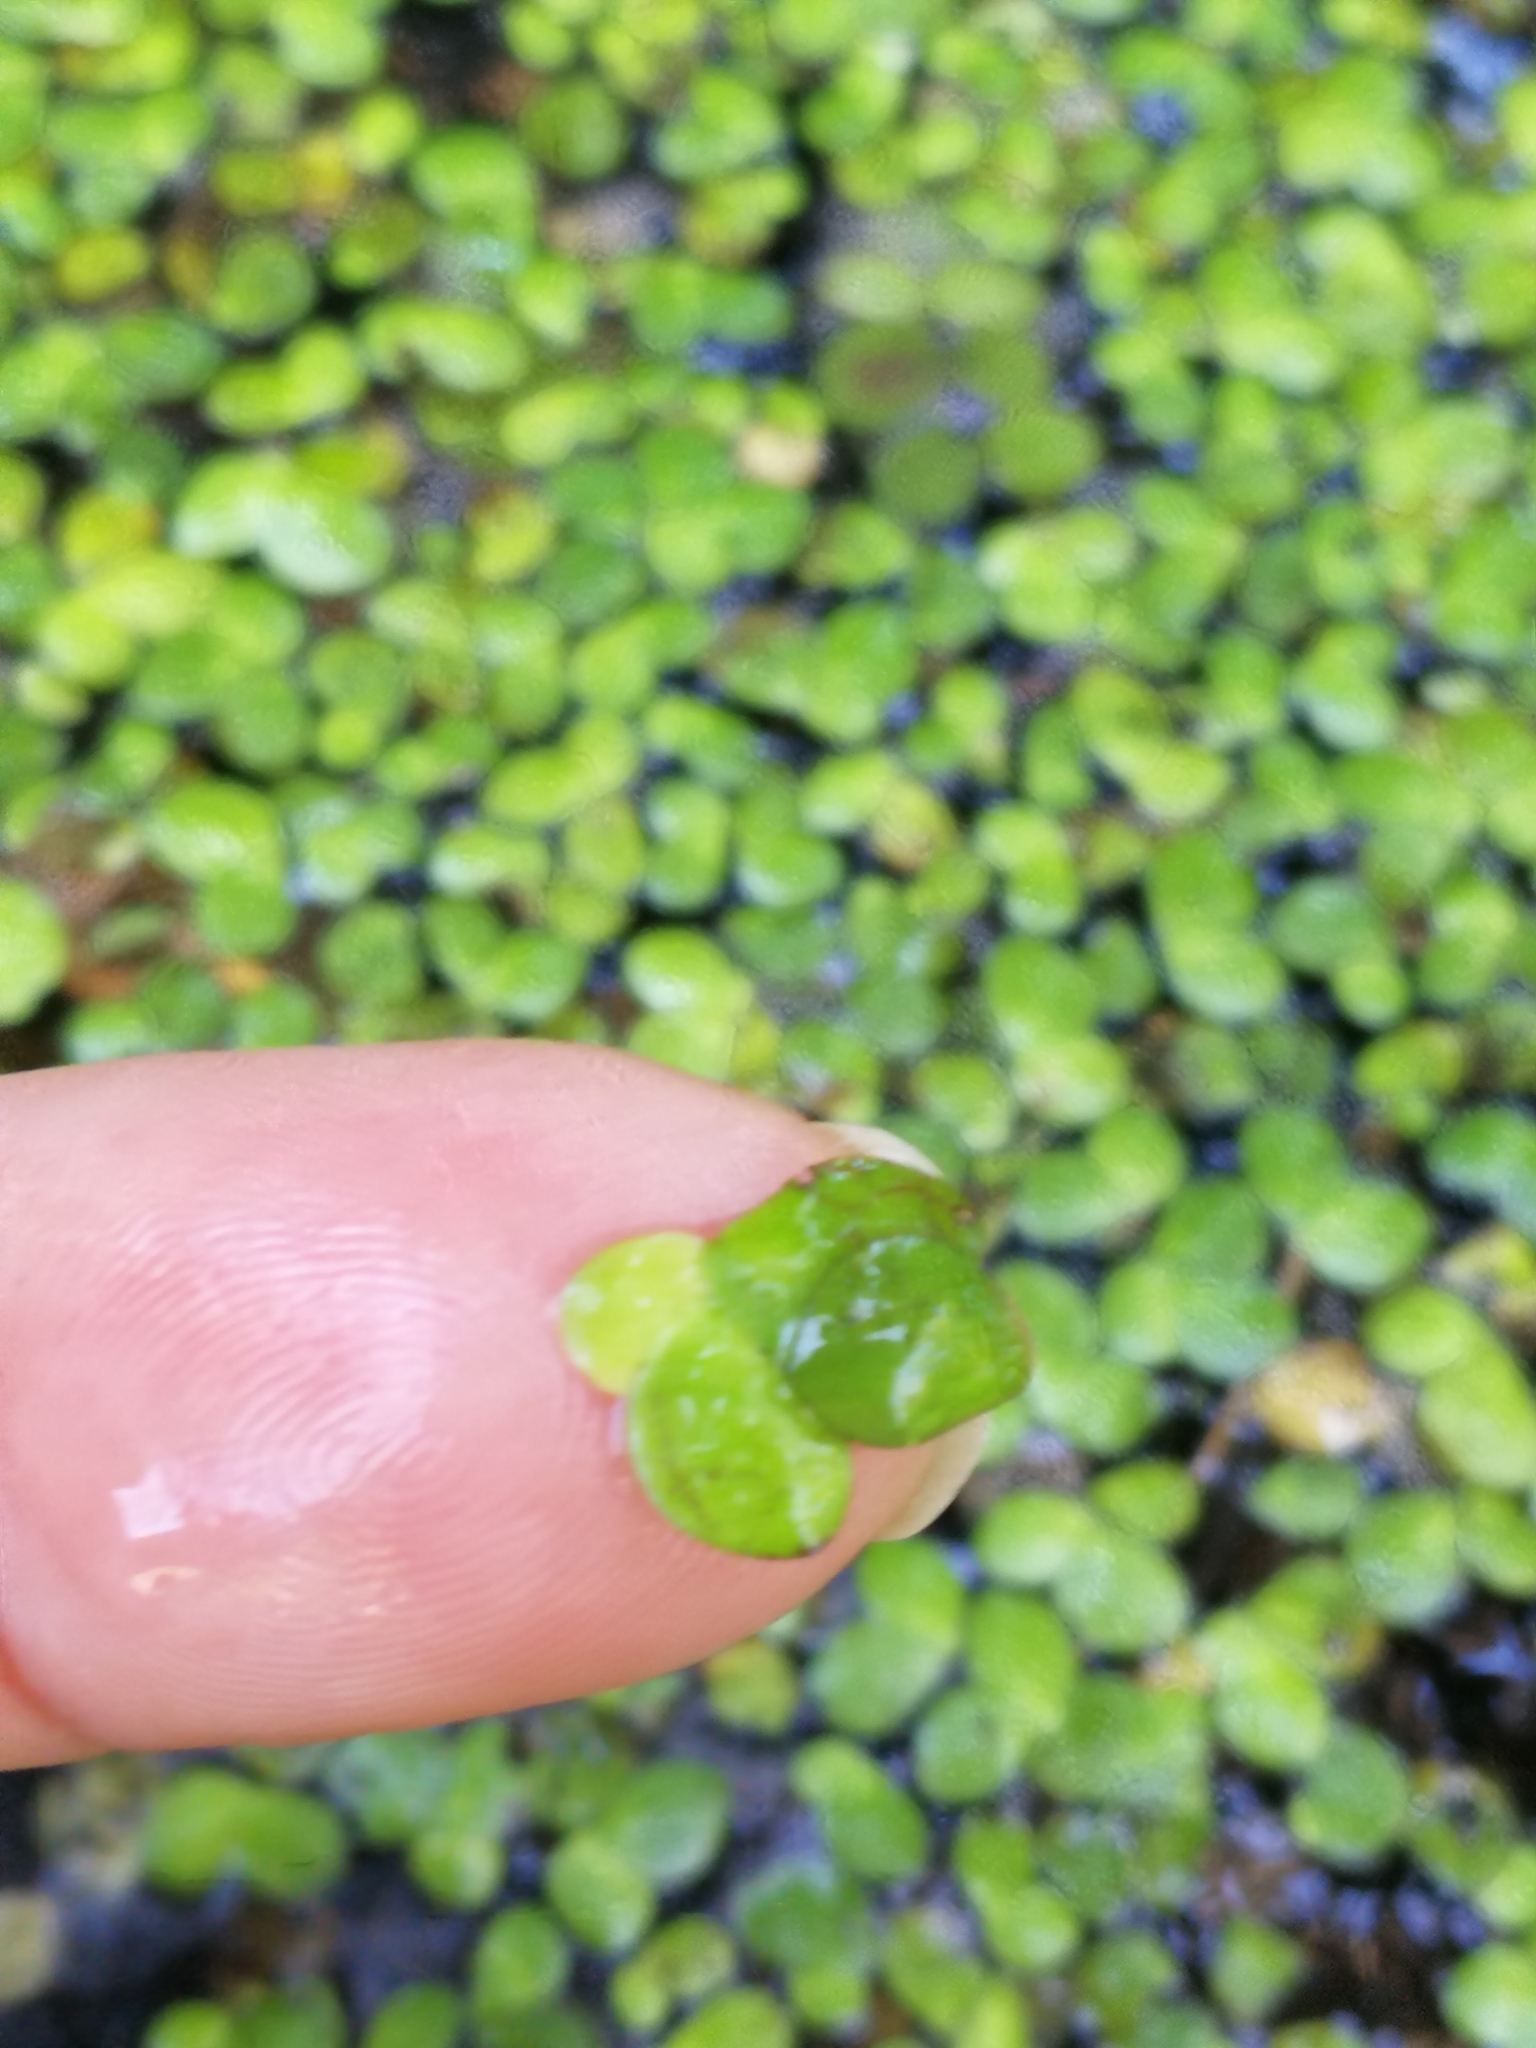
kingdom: Plantae
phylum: Tracheophyta
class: Liliopsida
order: Alismatales
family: Araceae
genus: Lemna
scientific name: Lemna minor
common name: Common duckweed
